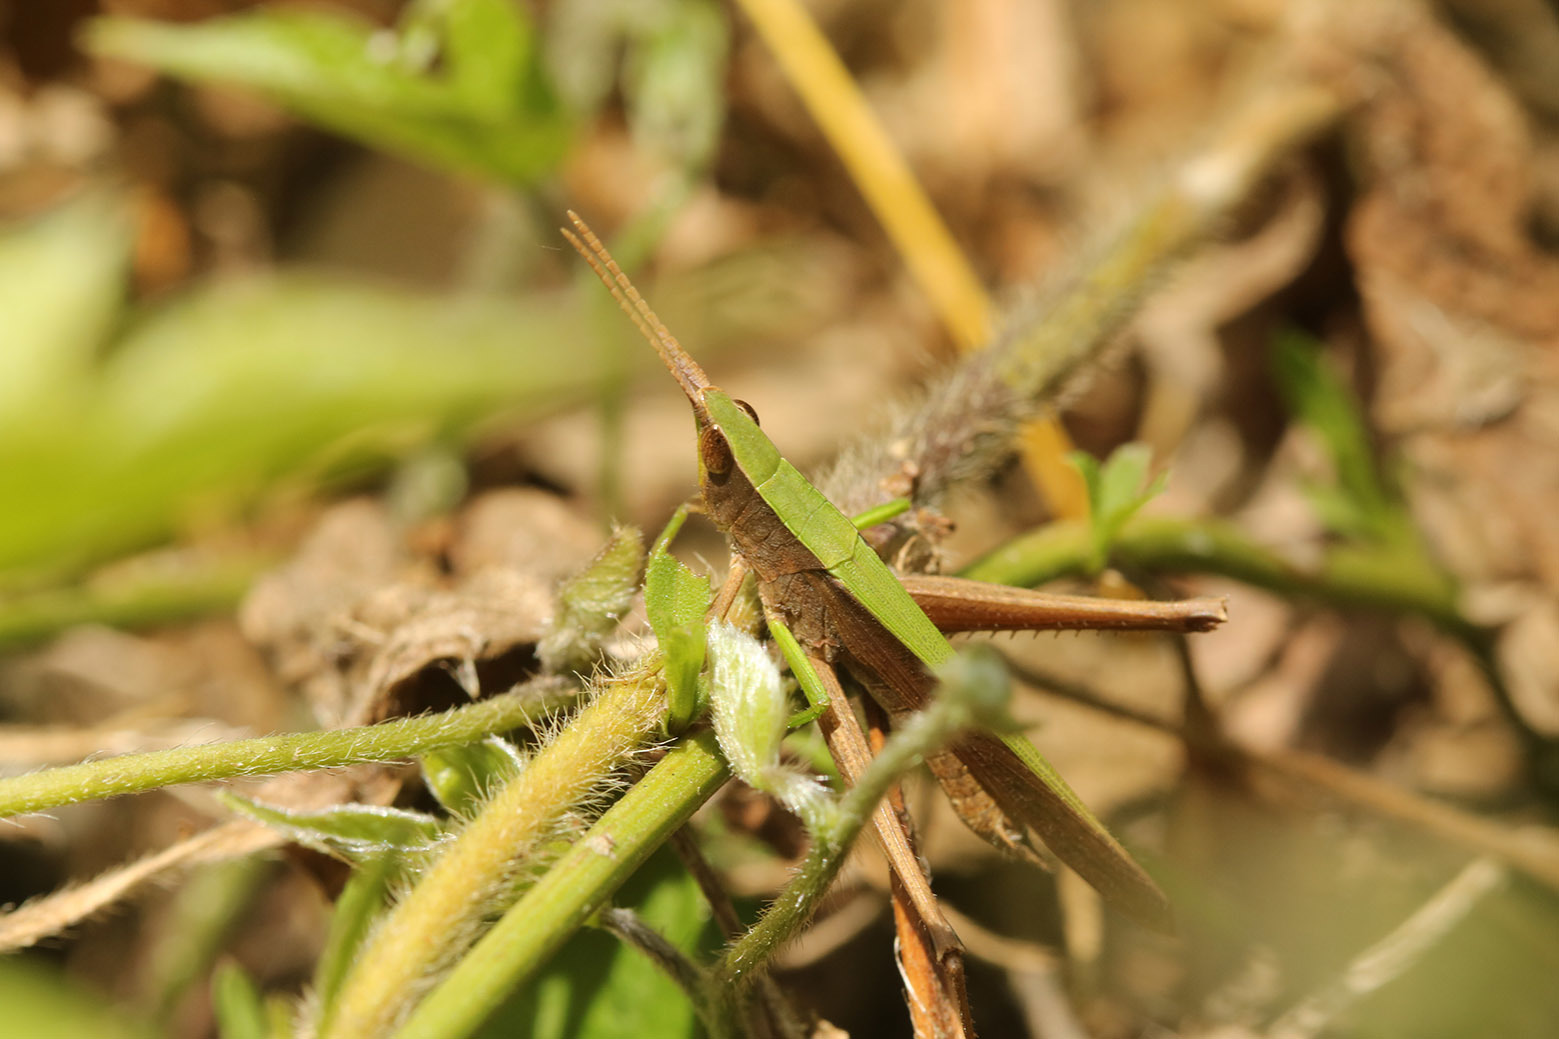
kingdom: Animalia
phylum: Arthropoda
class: Insecta
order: Orthoptera
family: Acrididae
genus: Metaleptea
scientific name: Metaleptea adspersa
